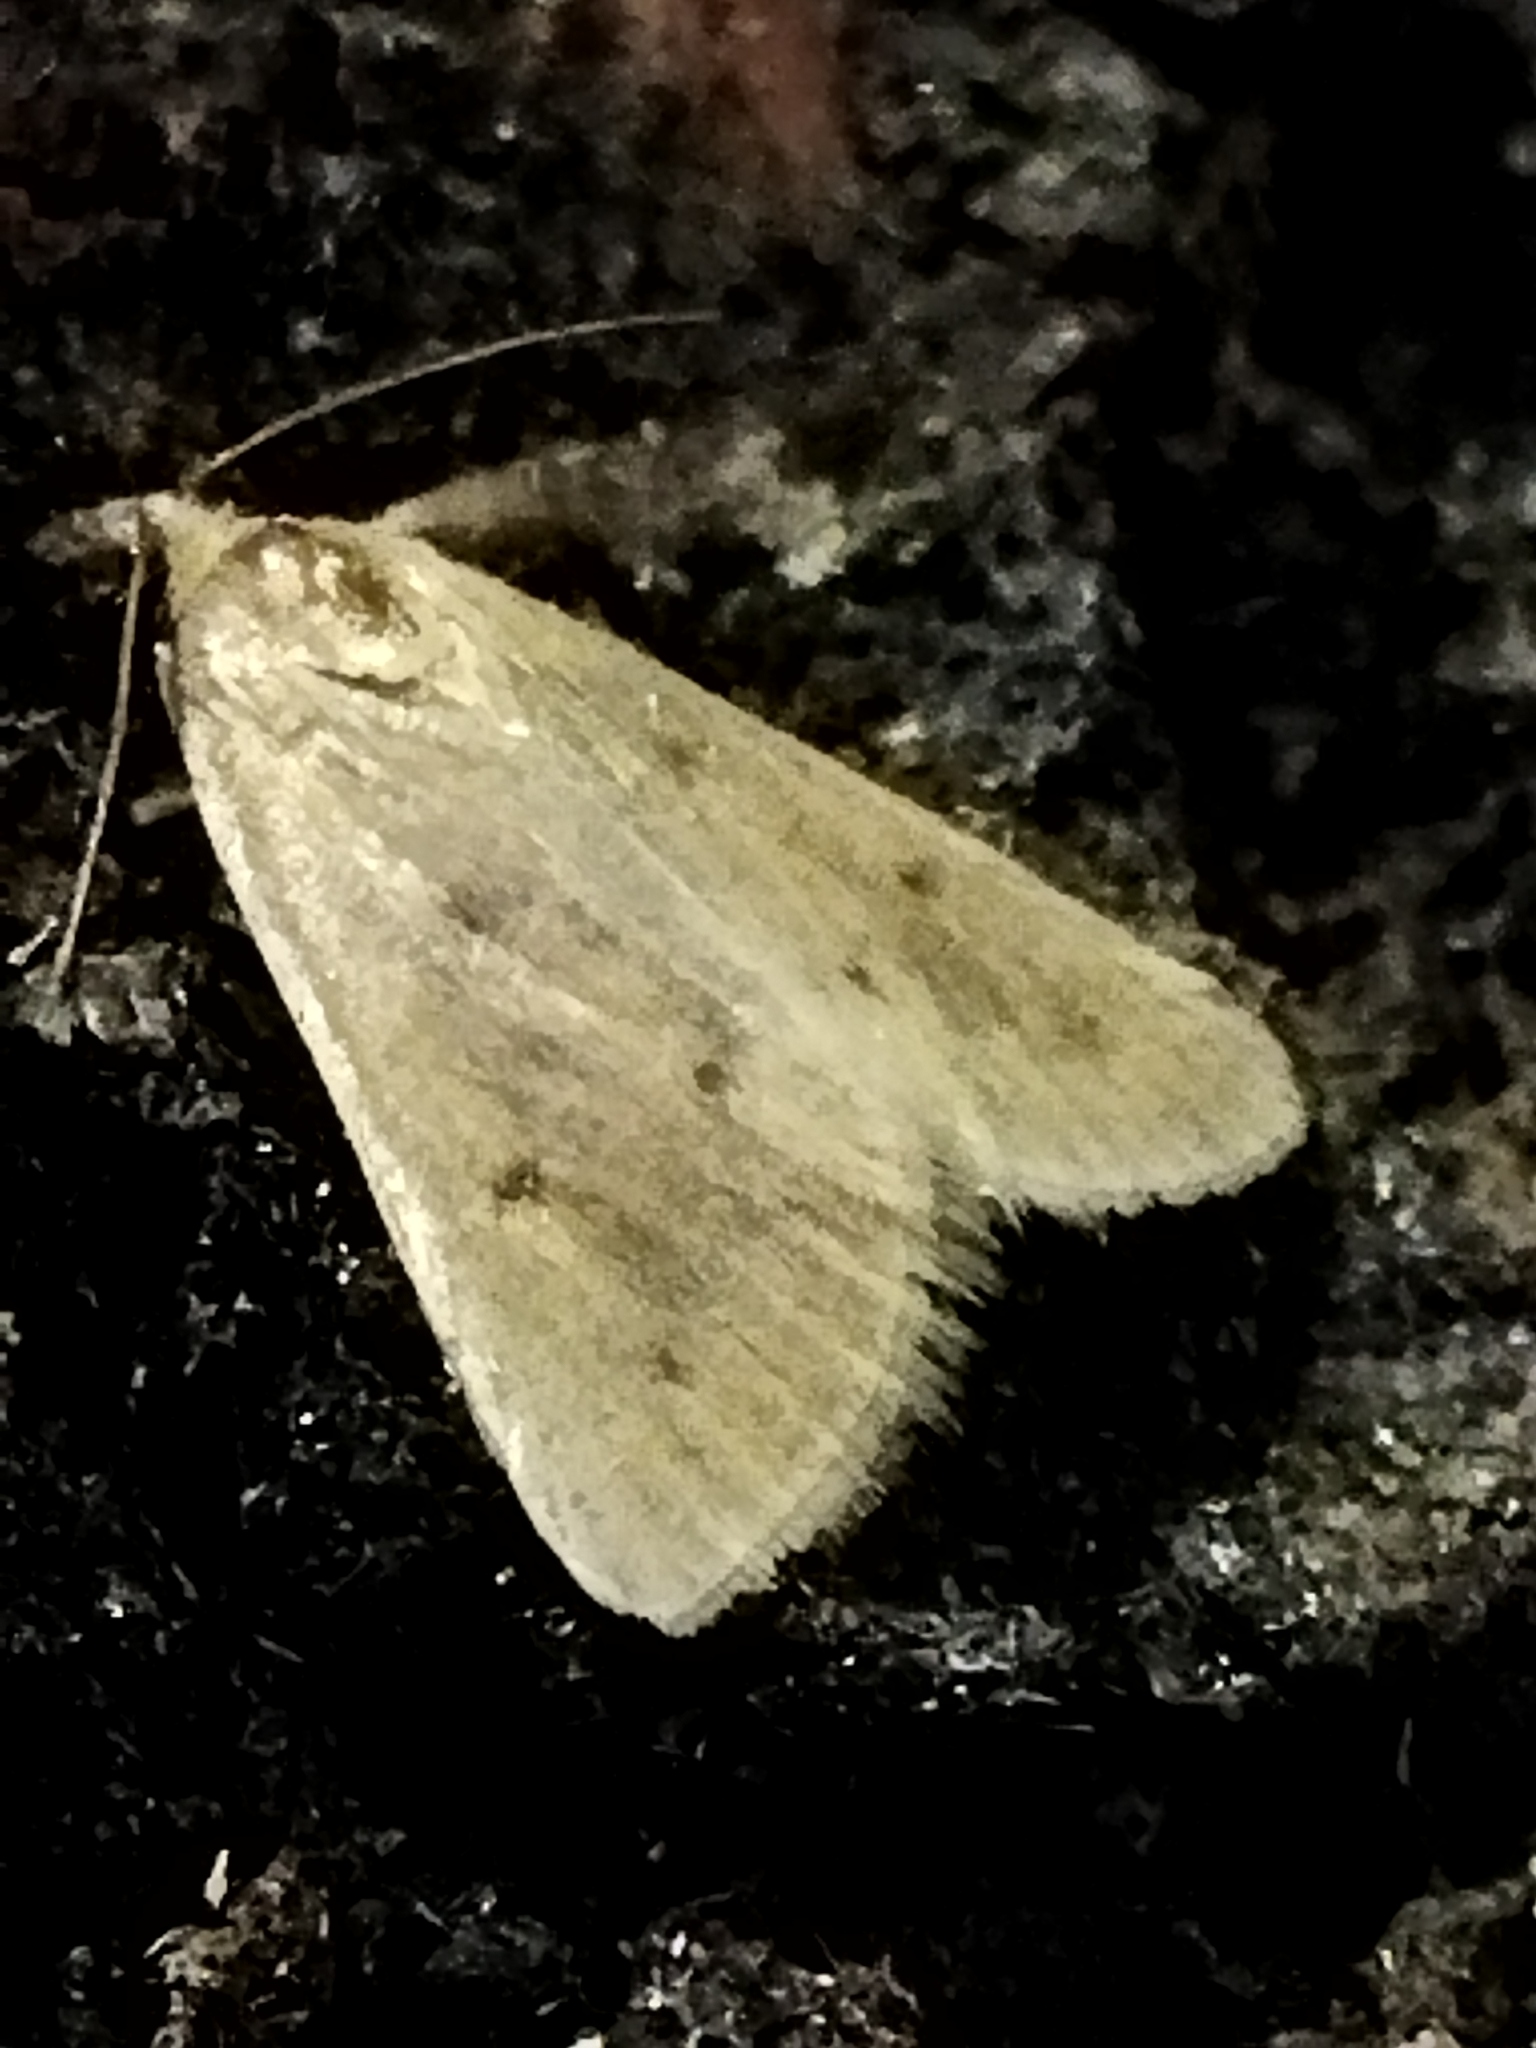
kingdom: Animalia
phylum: Arthropoda
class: Insecta
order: Lepidoptera
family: Crambidae
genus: Achyra
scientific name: Achyra nudalis
